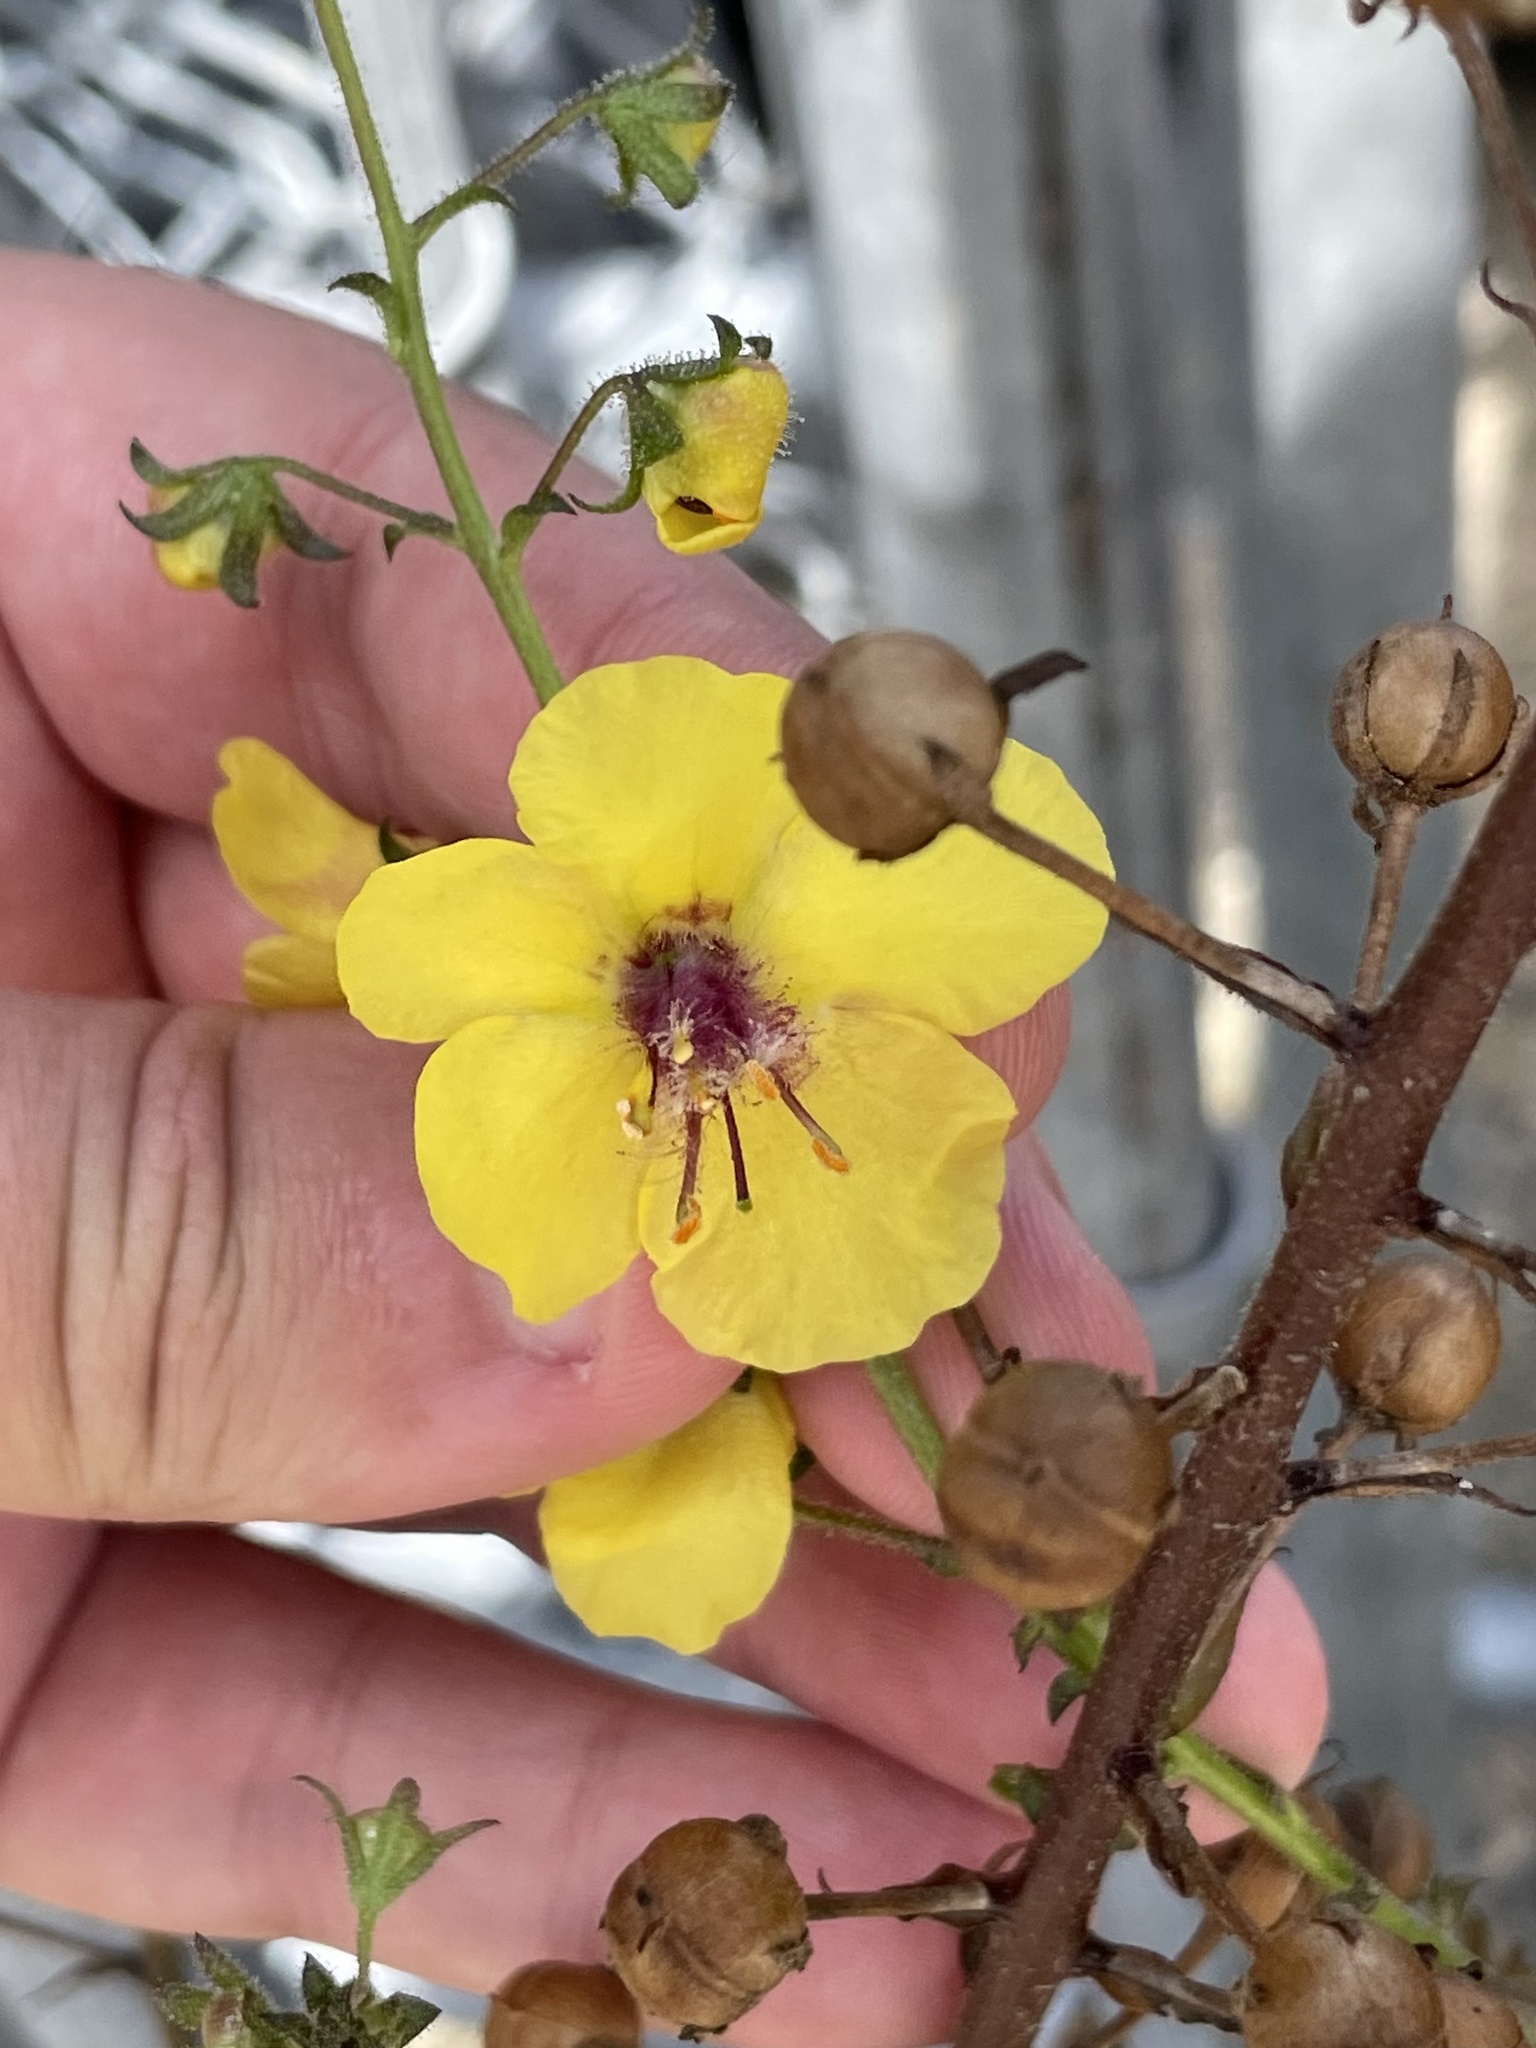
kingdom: Plantae
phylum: Tracheophyta
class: Magnoliopsida
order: Lamiales
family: Scrophulariaceae
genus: Verbascum
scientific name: Verbascum blattaria
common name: Moth mullein
